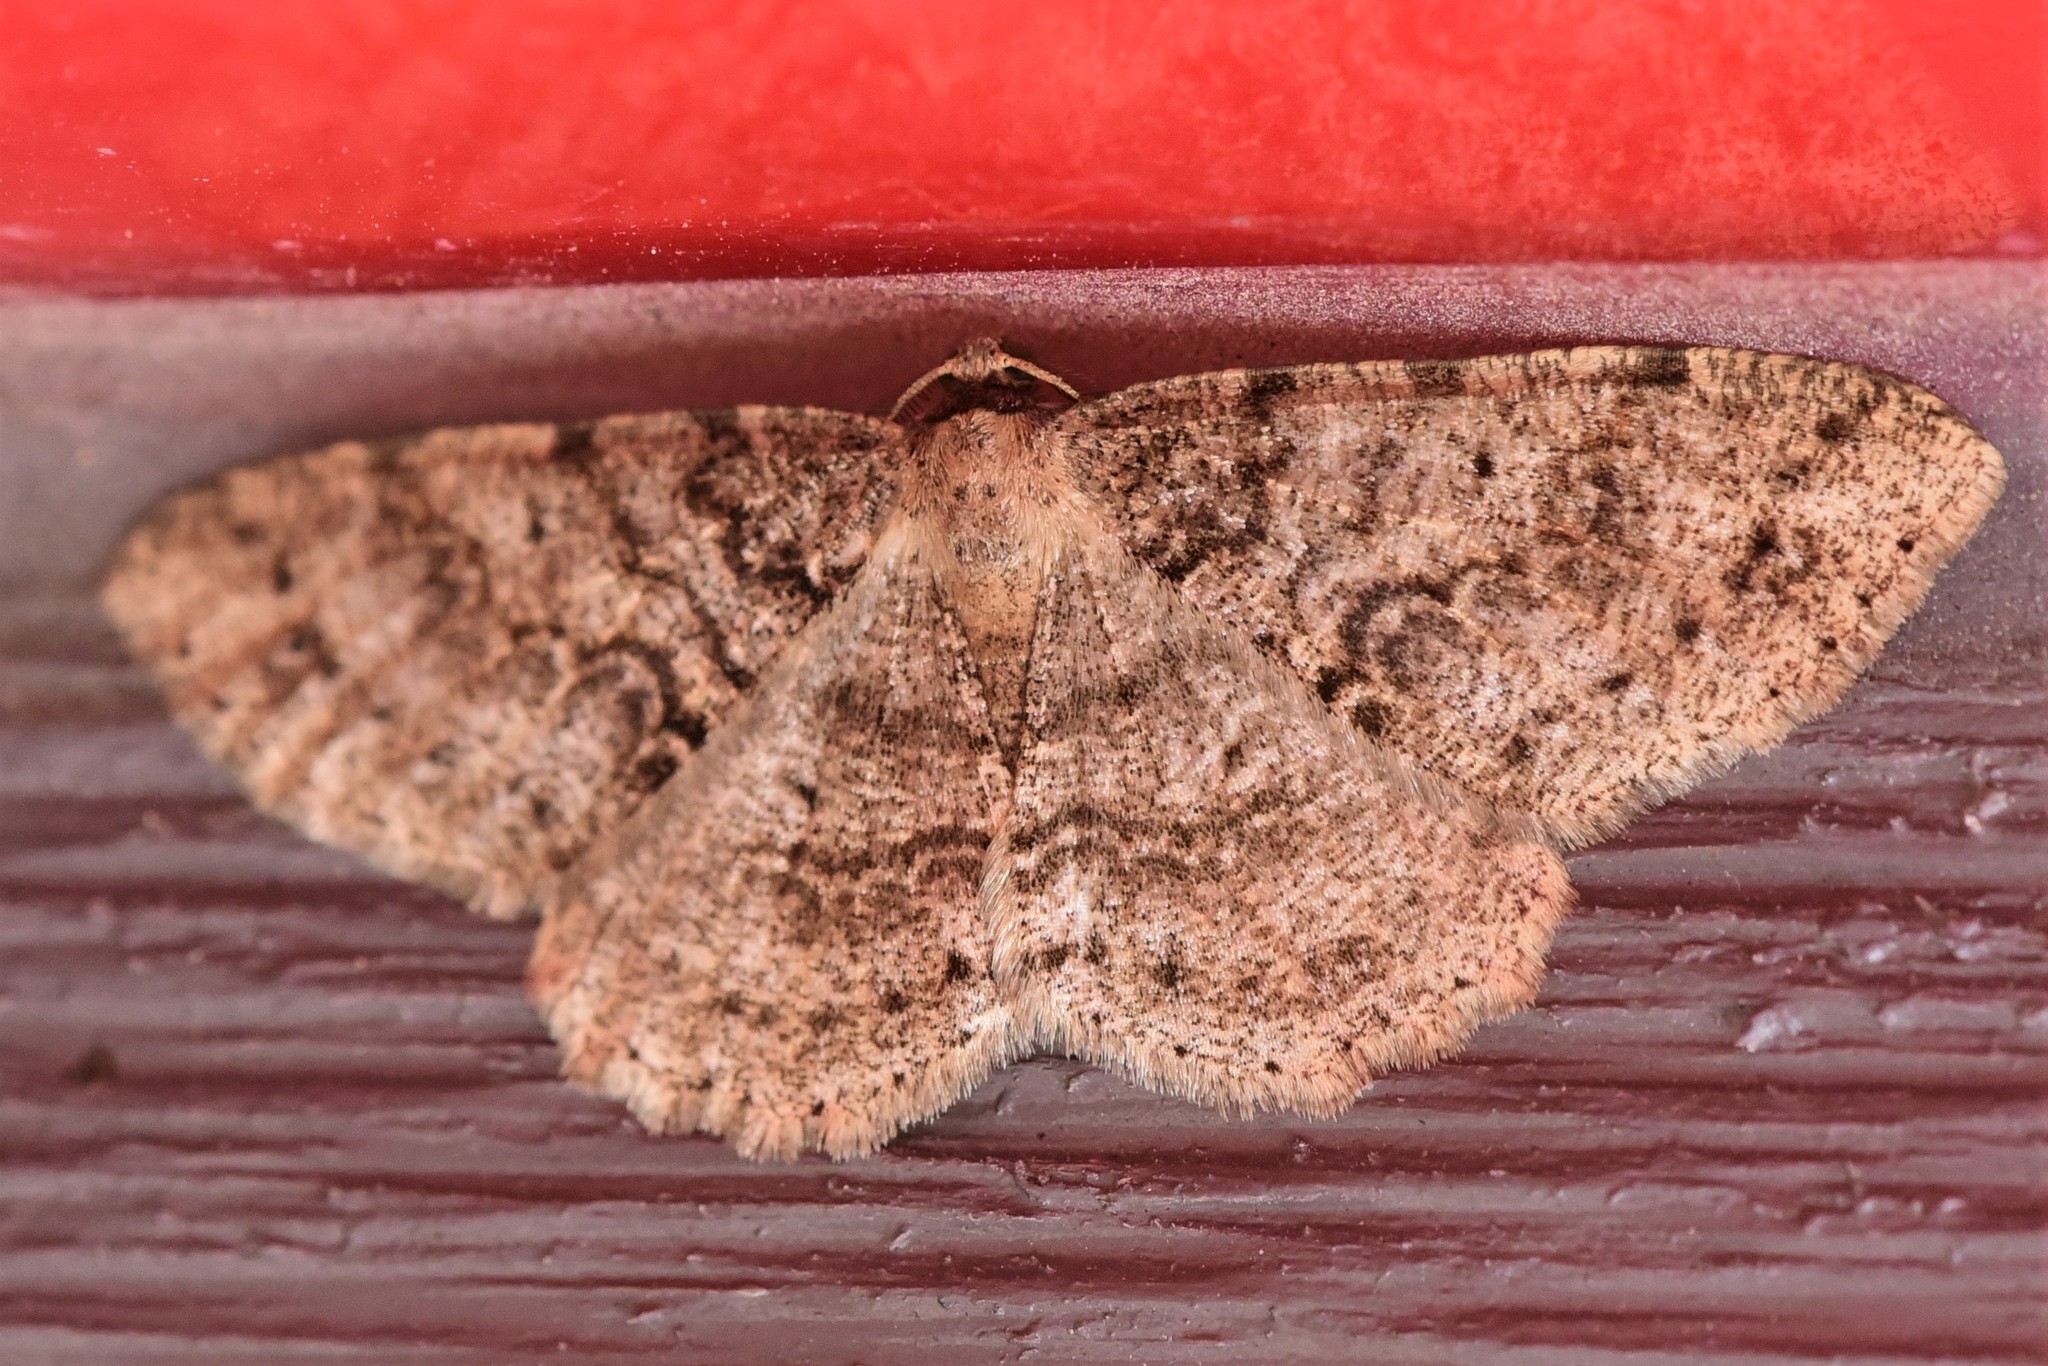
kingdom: Animalia
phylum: Arthropoda
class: Insecta
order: Lepidoptera
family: Geometridae
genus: Melanolophia
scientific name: Melanolophia imitata
